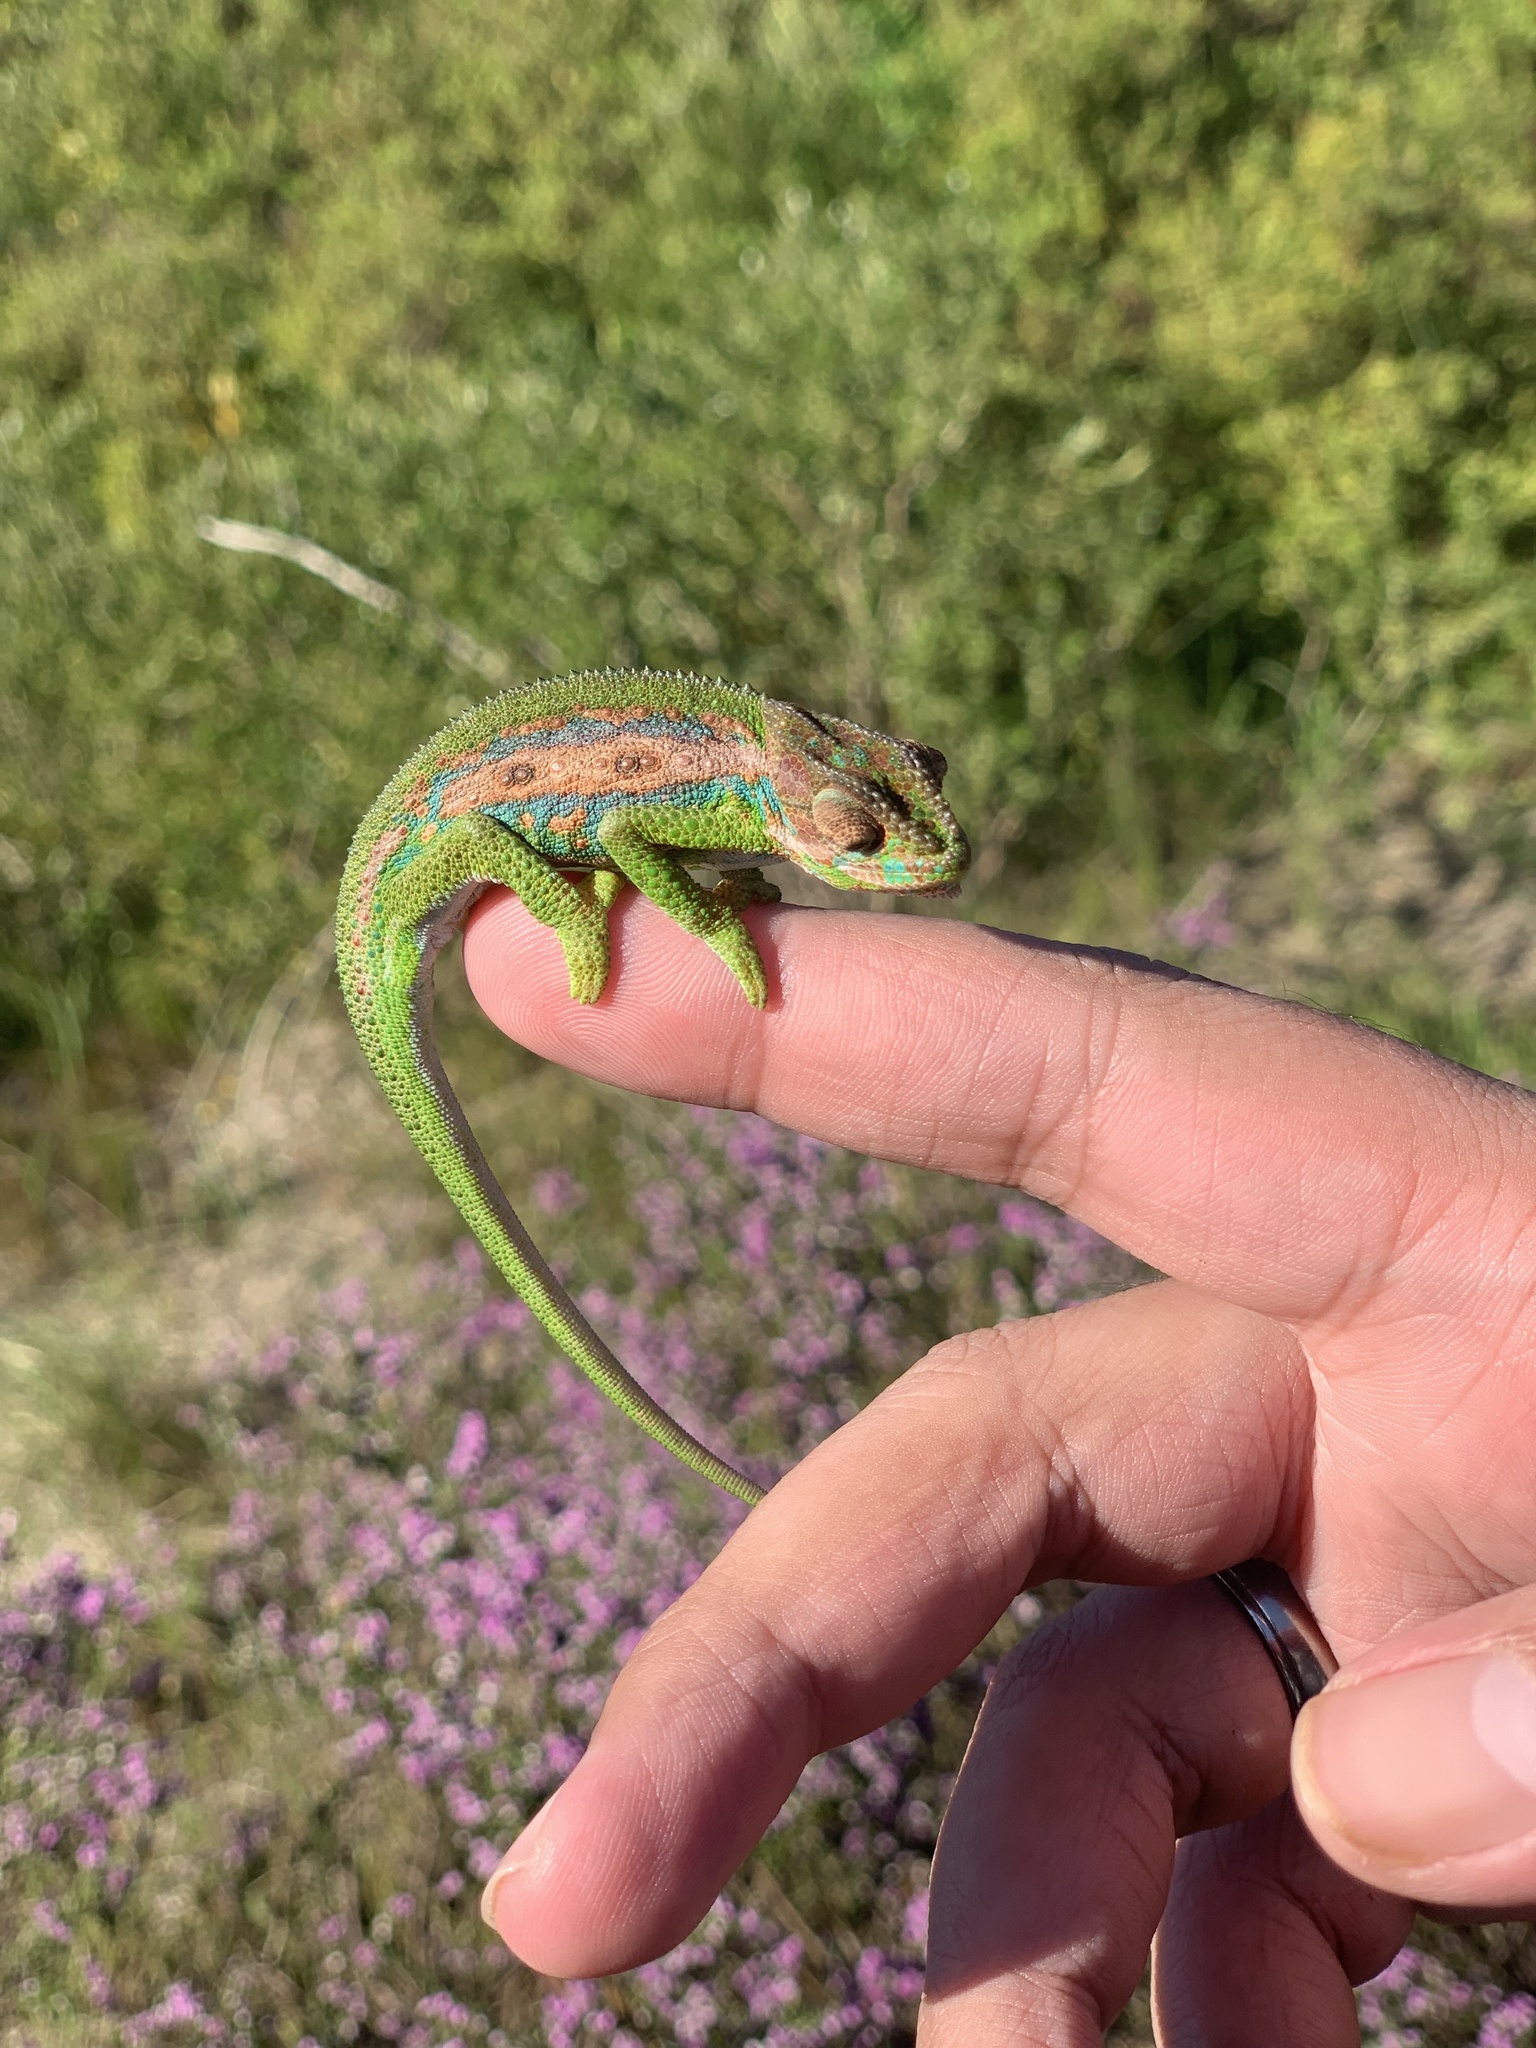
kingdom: Animalia
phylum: Chordata
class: Squamata
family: Chamaeleonidae
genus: Bradypodion
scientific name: Bradypodion pumilum
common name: Cape dwarf chameleon
